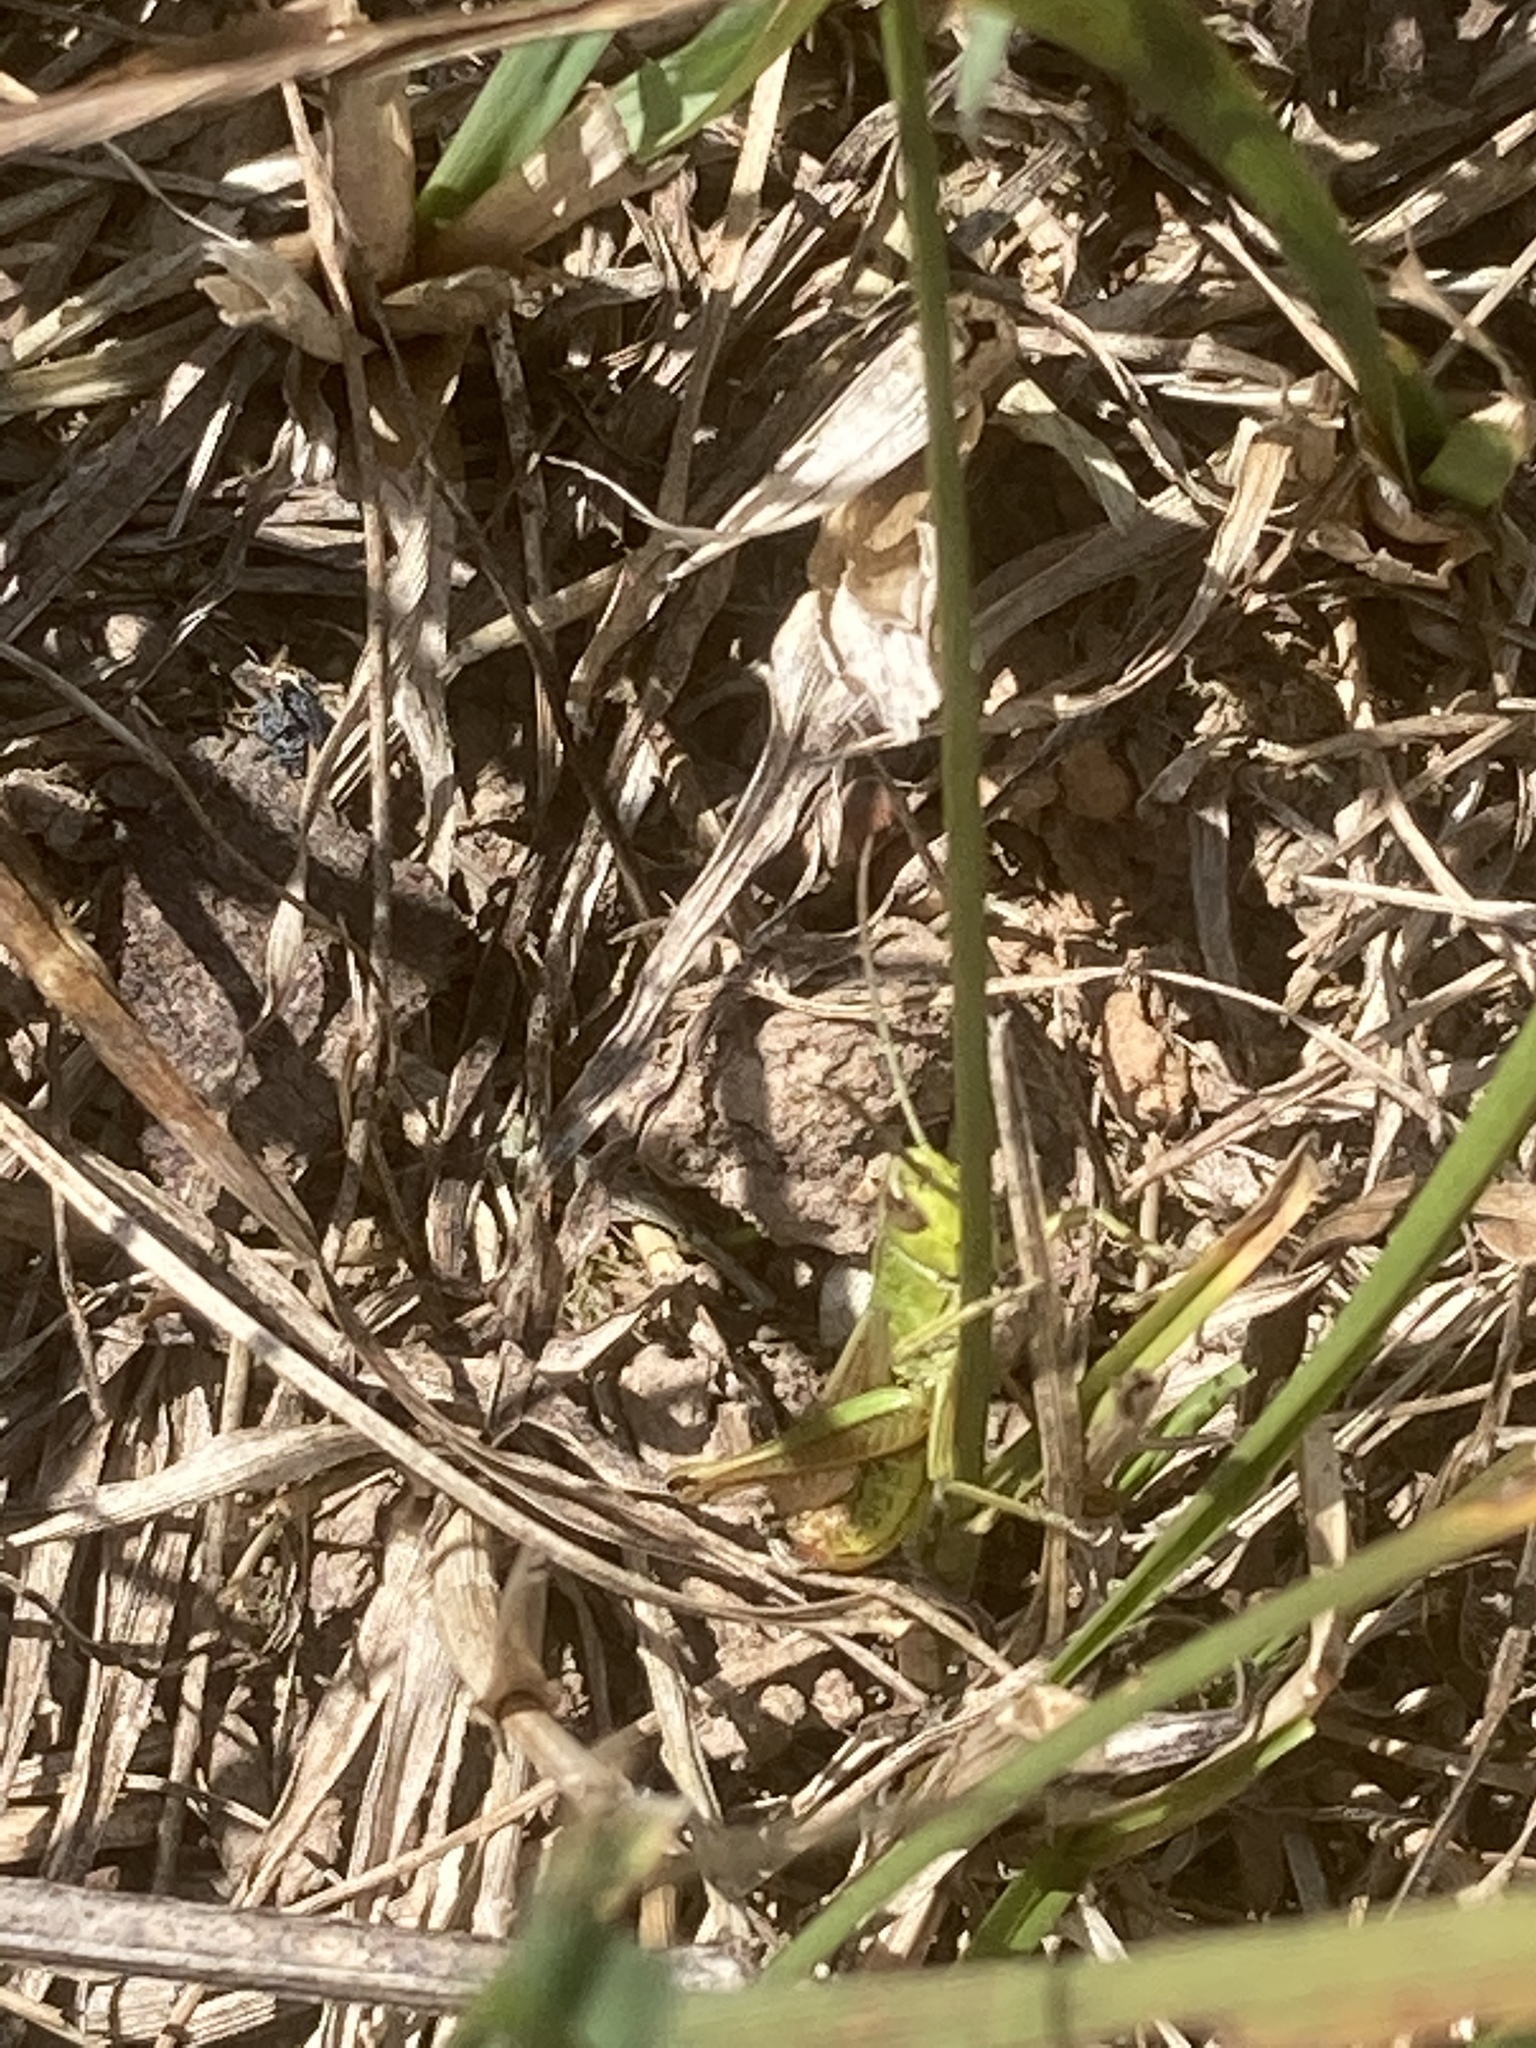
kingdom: Animalia
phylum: Arthropoda
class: Insecta
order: Orthoptera
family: Acrididae
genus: Pseudochorthippus
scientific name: Pseudochorthippus parallelus
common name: Meadow grasshopper
